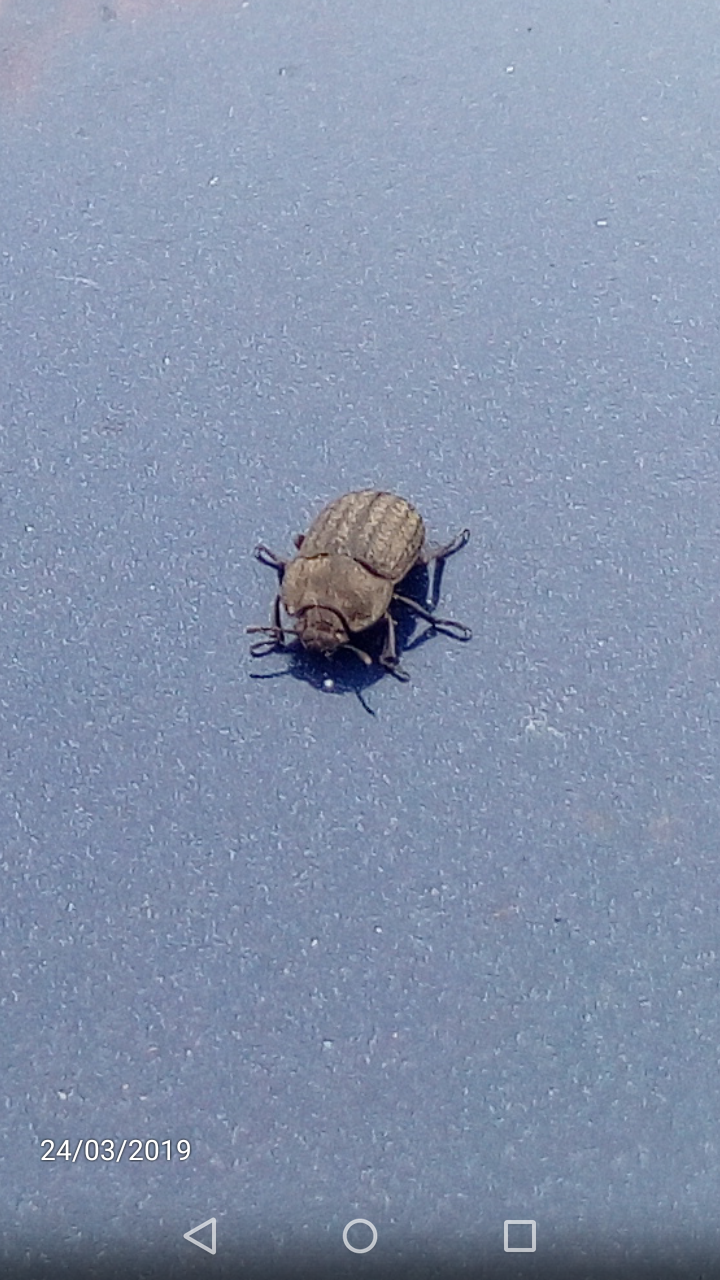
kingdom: Animalia
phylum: Arthropoda
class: Insecta
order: Coleoptera
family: Tenebrionidae
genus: Opatrum
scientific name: Opatrum sabulosum
